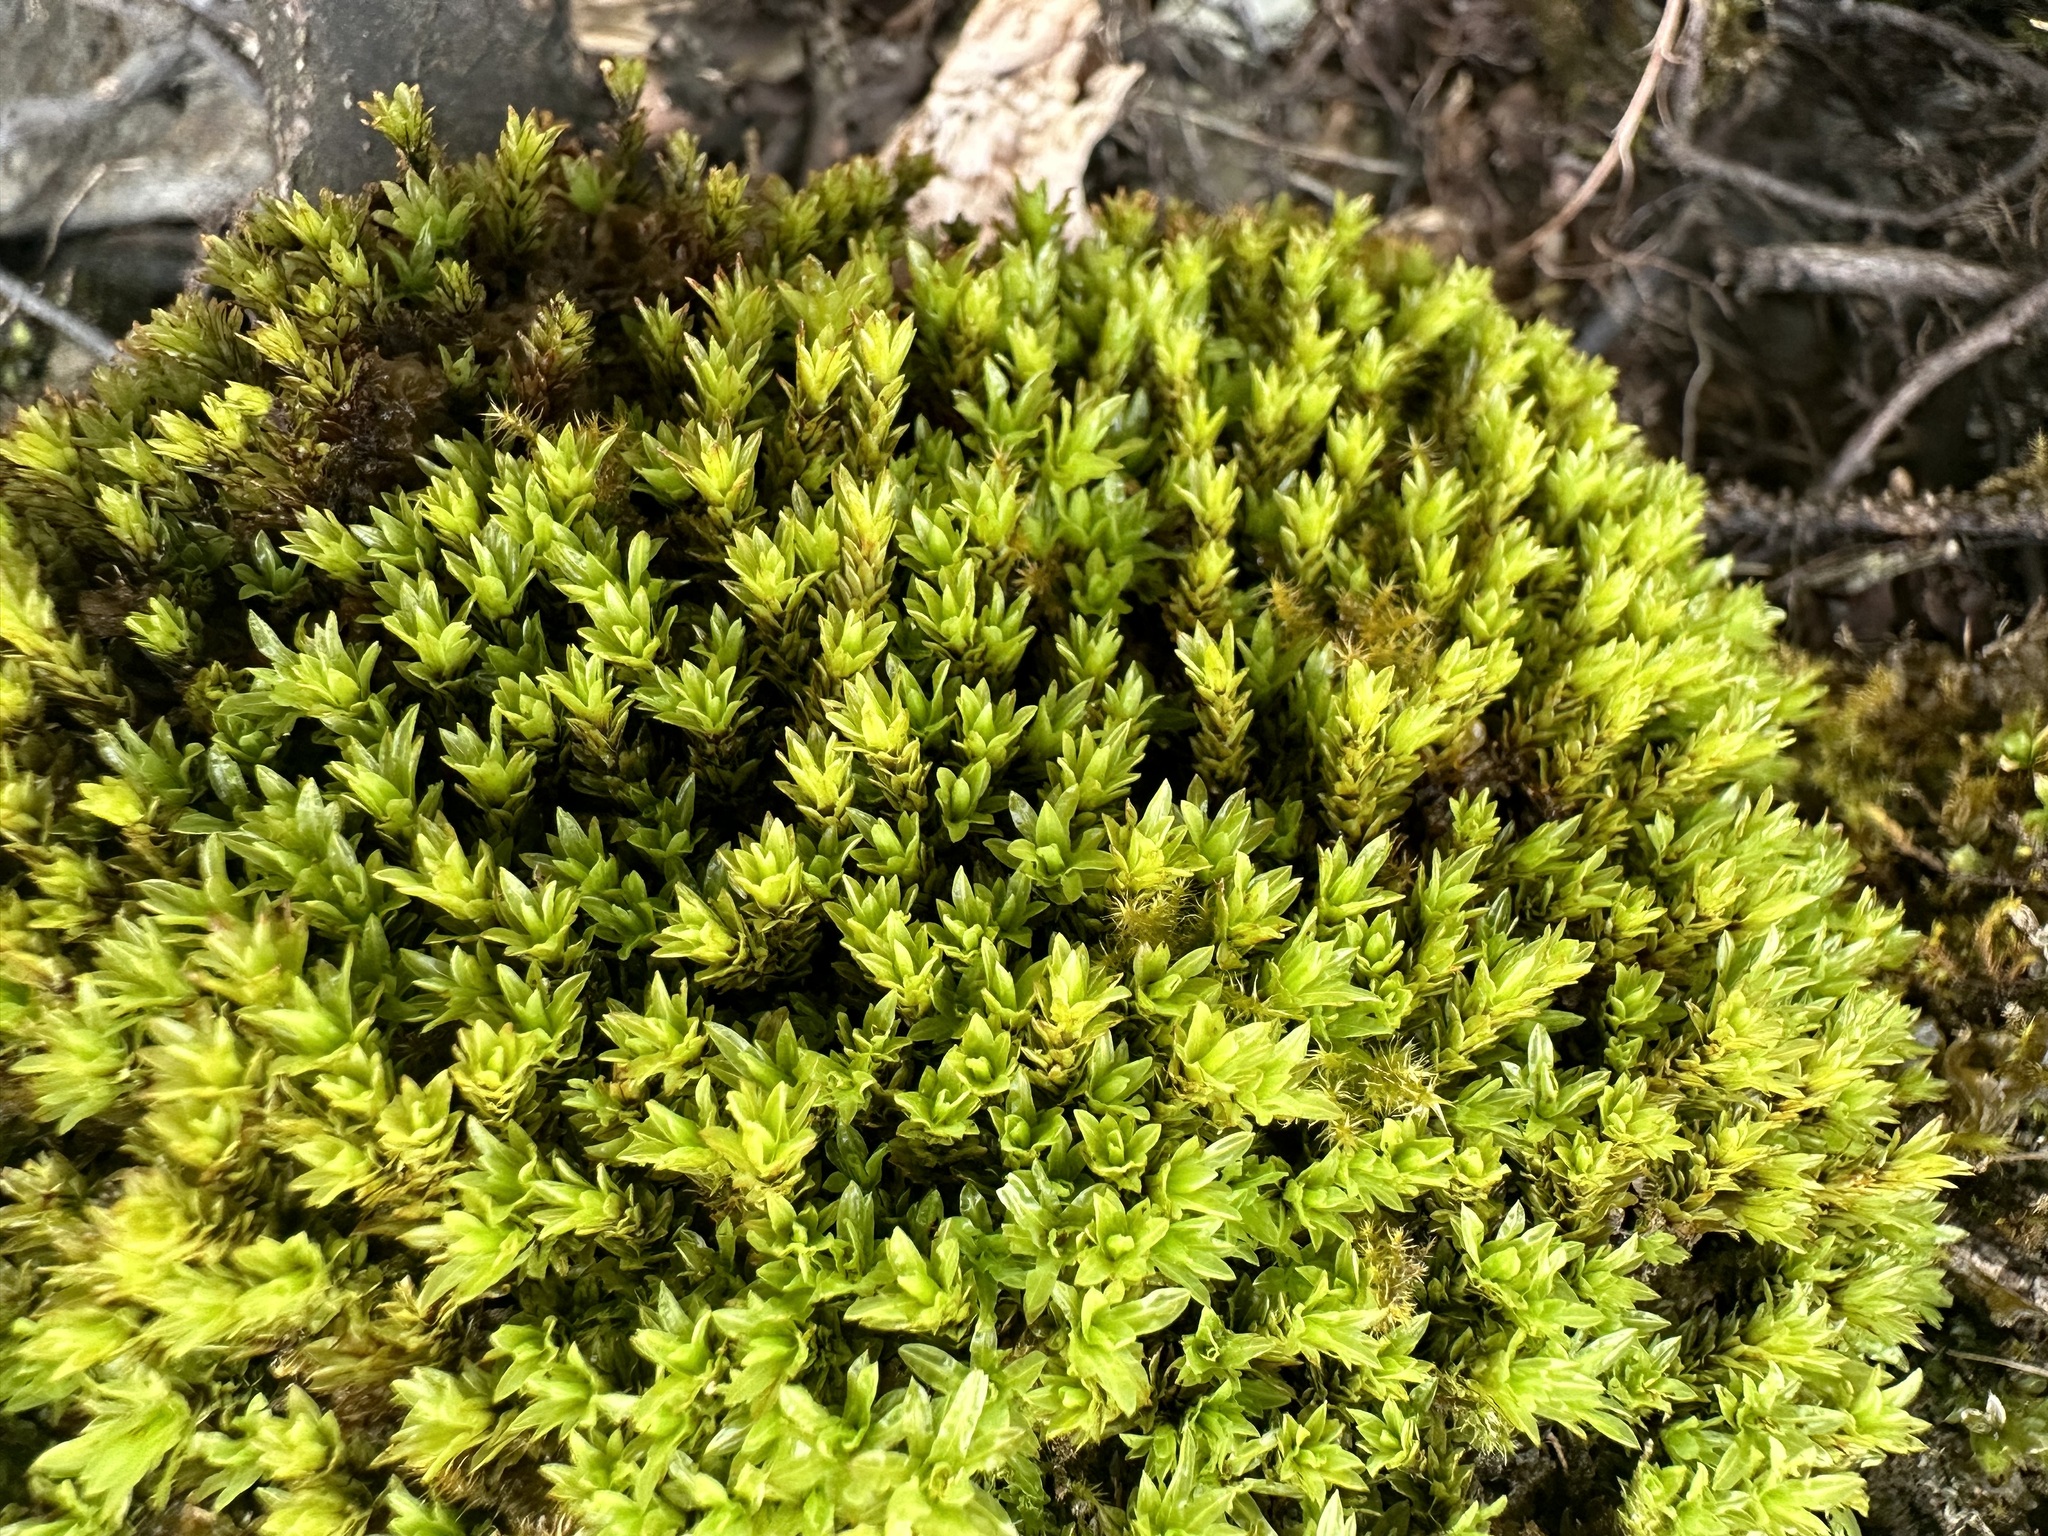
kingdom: Plantae
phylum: Bryophyta
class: Bryopsida
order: Encalyptales
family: Encalyptaceae
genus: Encalypta
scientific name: Encalypta streptocarpa
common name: Spiral extinguisher-moss
